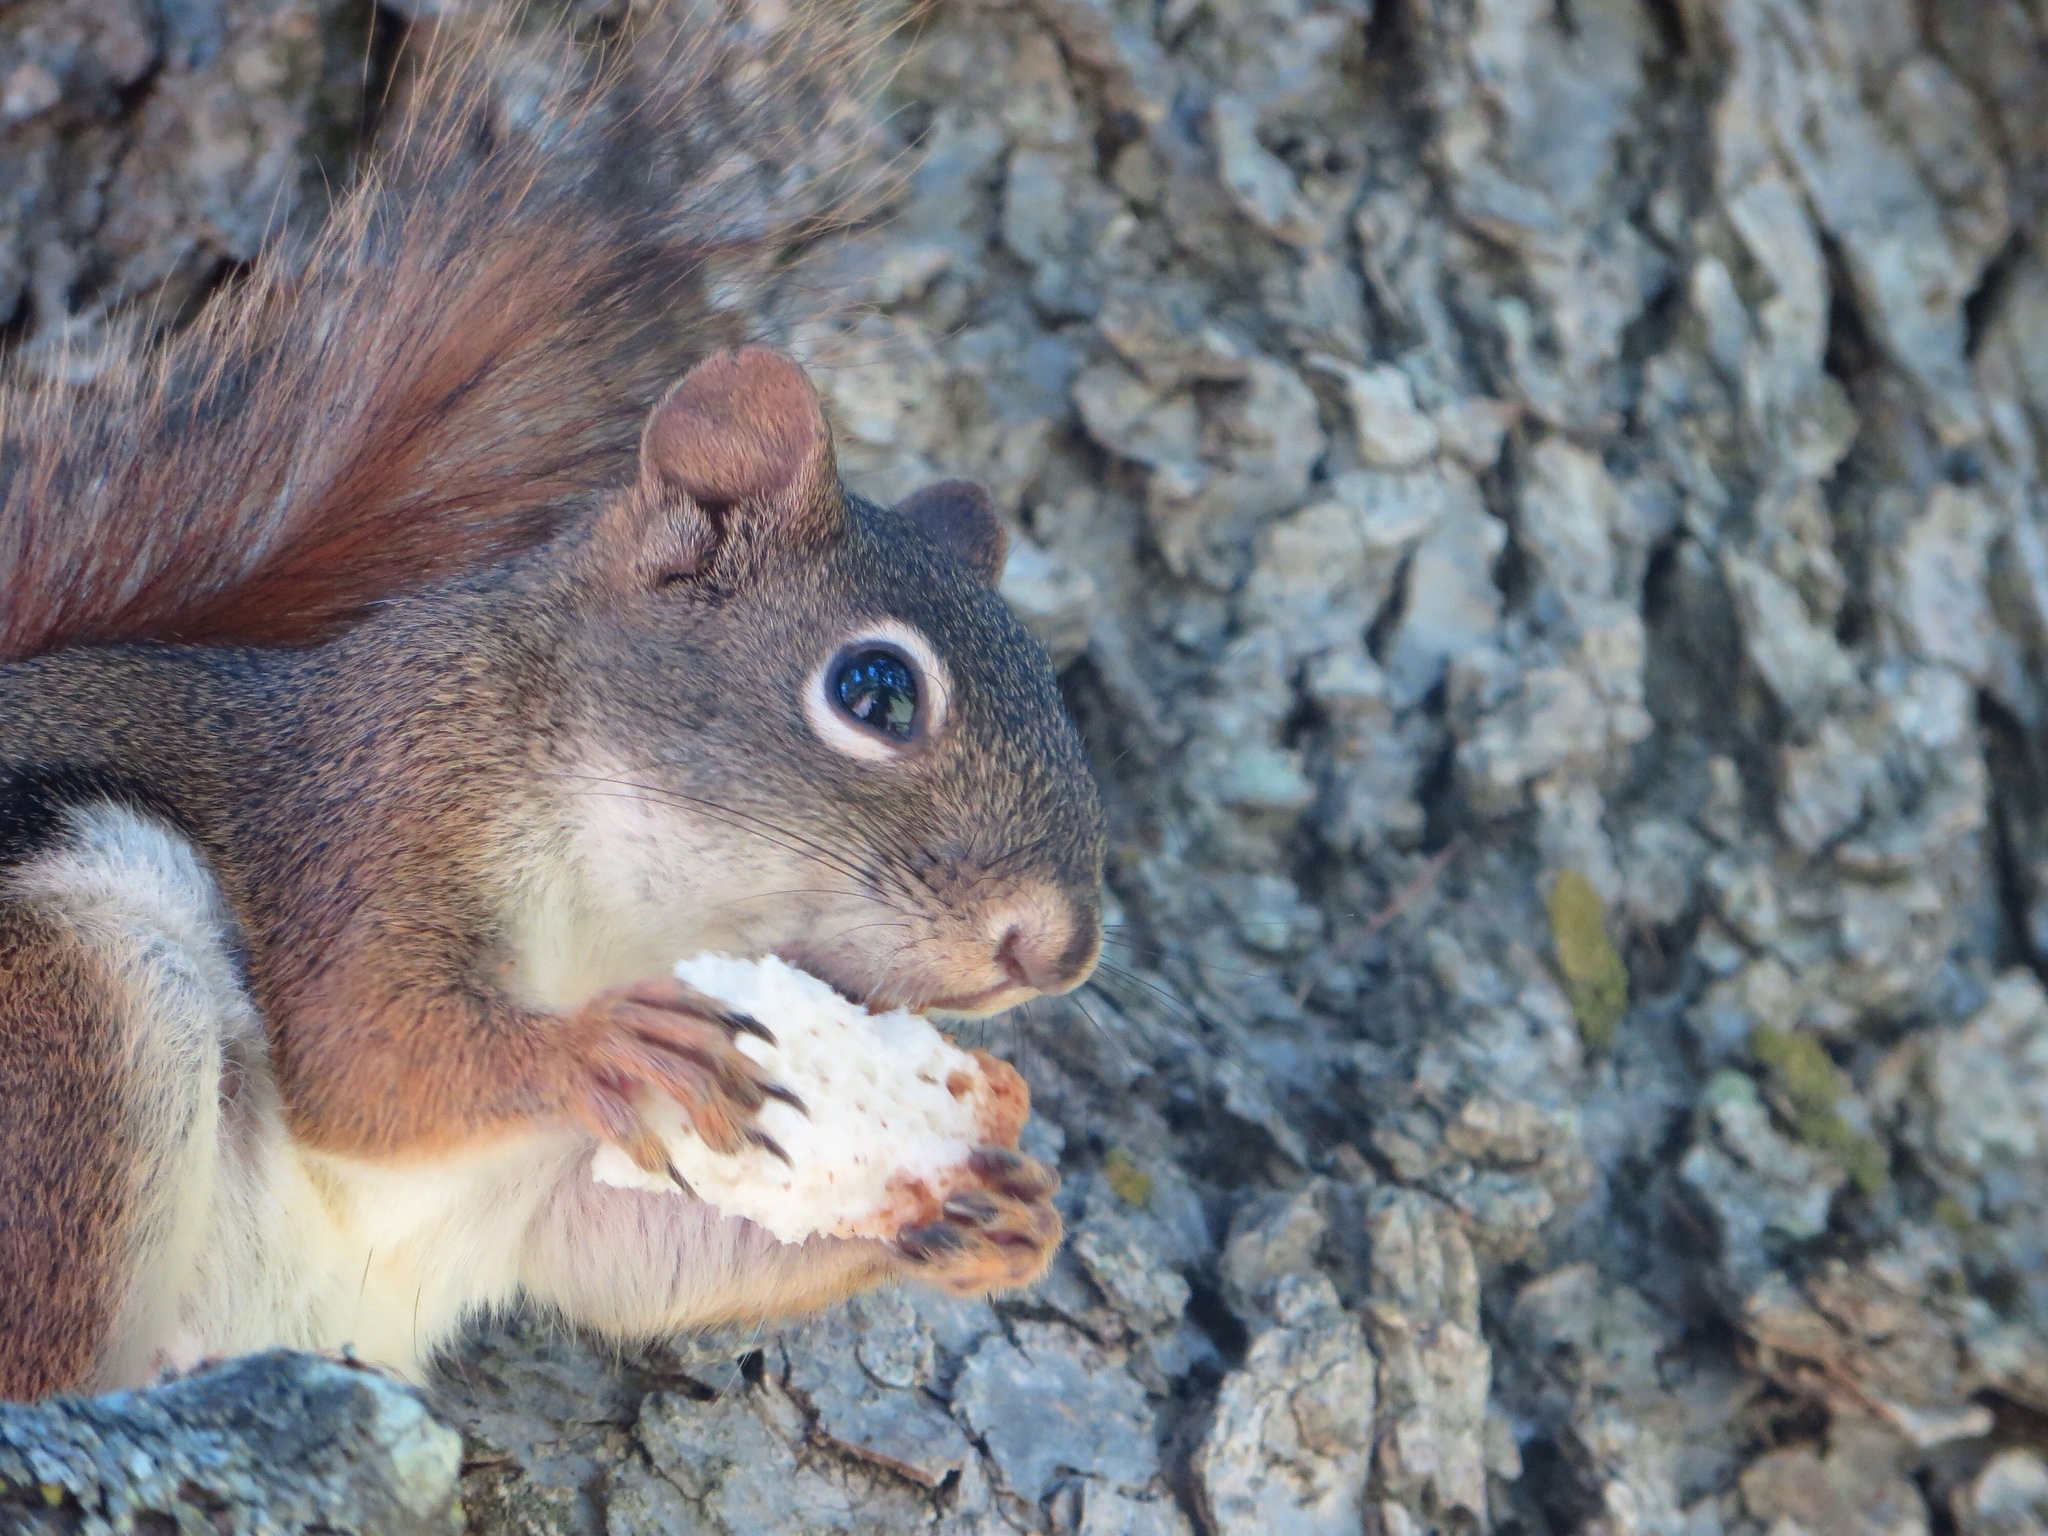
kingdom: Animalia
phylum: Chordata
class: Mammalia
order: Rodentia
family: Sciuridae
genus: Tamiasciurus
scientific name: Tamiasciurus hudsonicus
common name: Red squirrel
